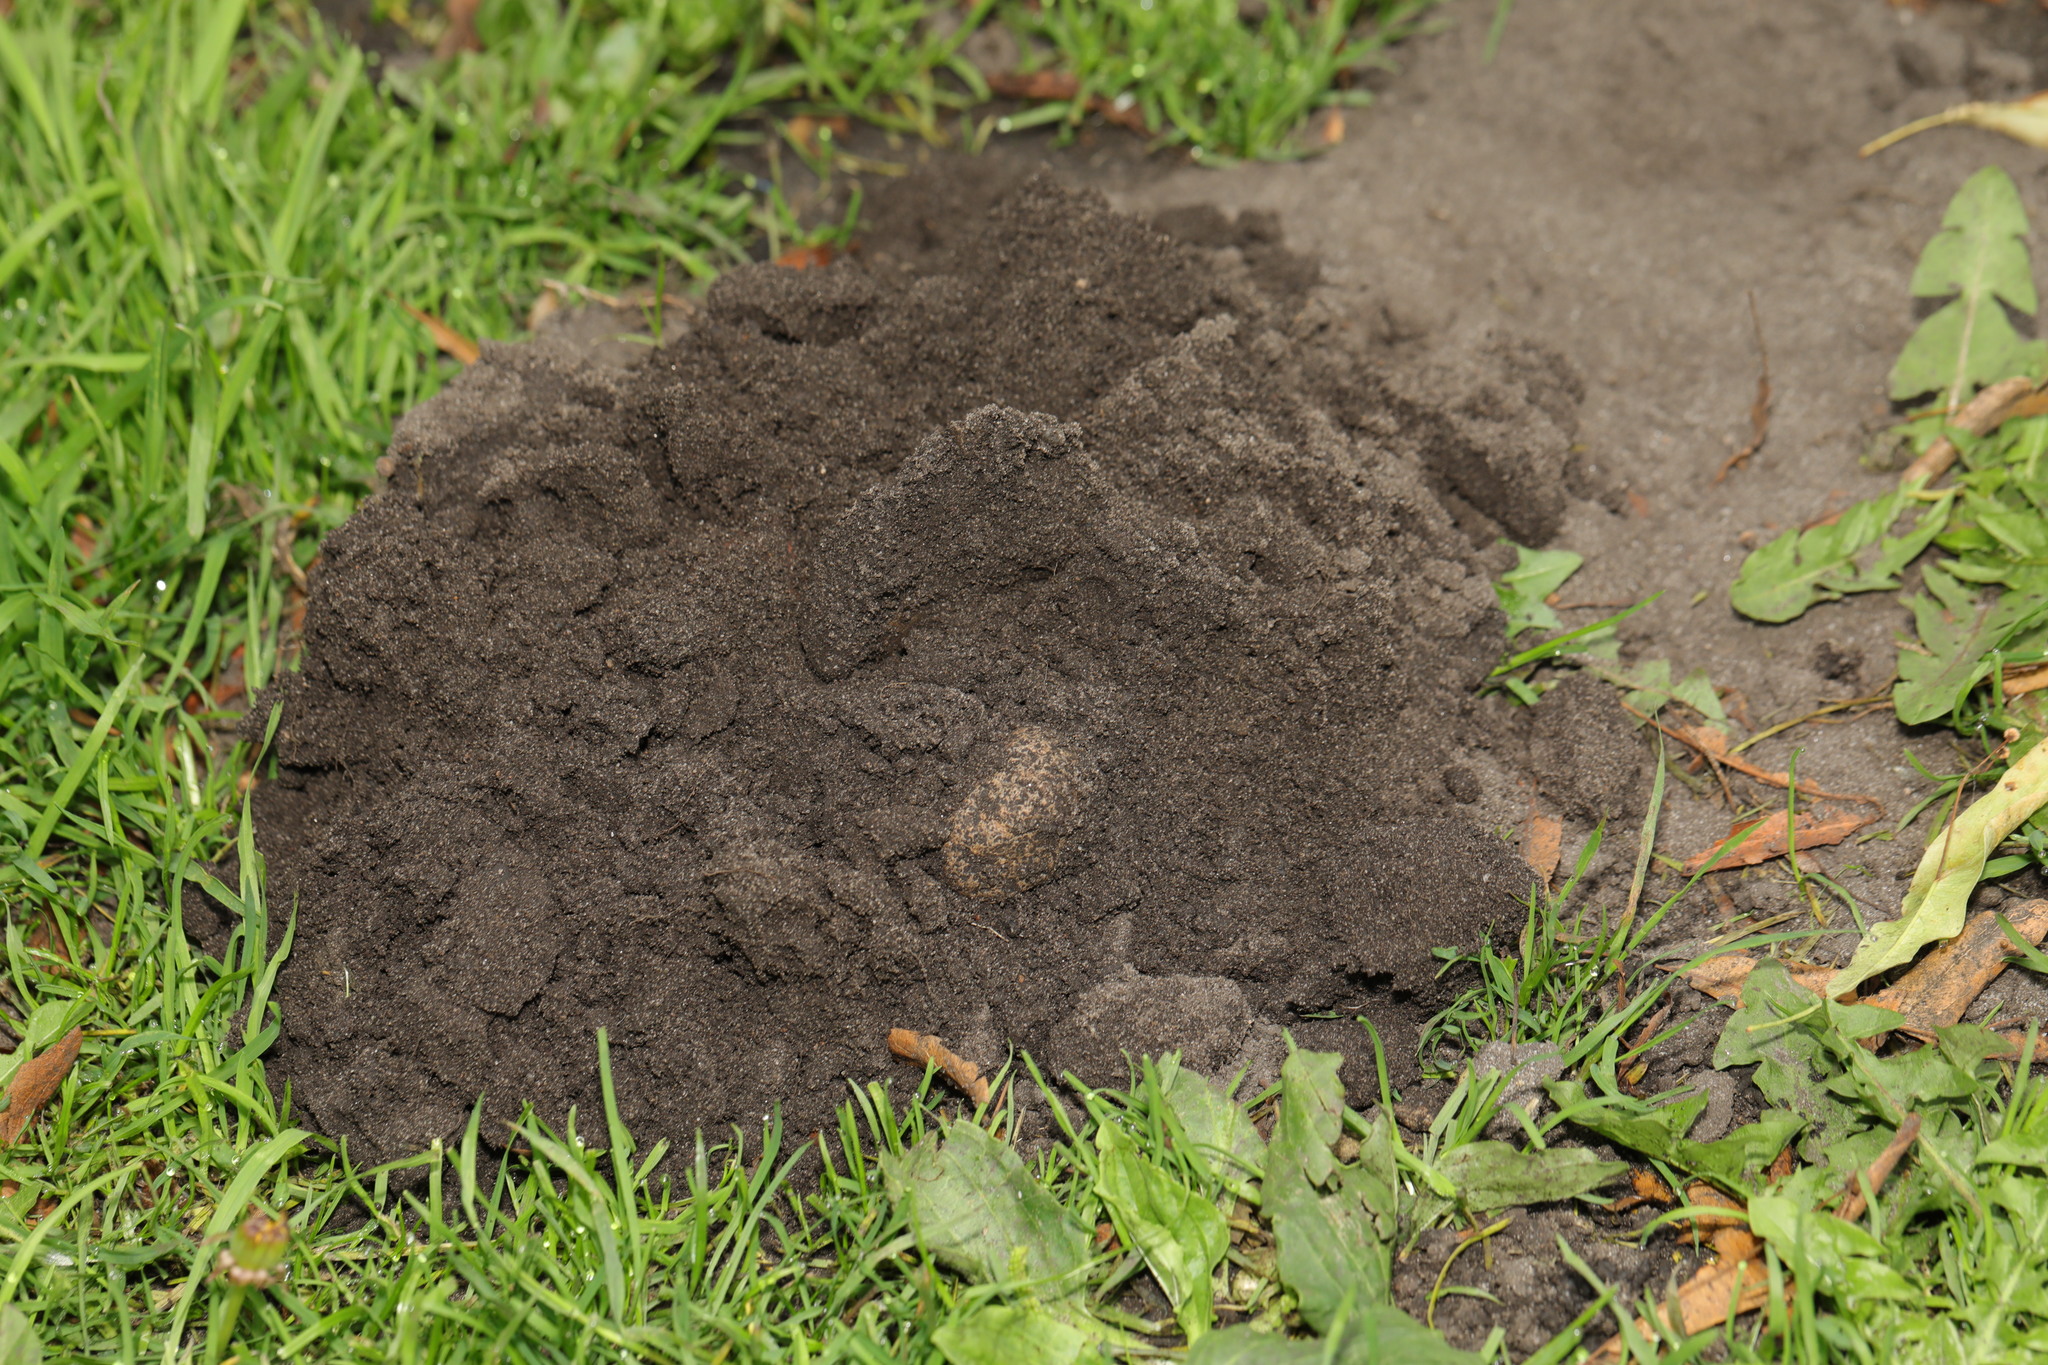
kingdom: Animalia
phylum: Chordata
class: Mammalia
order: Soricomorpha
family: Talpidae
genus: Talpa
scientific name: Talpa europaea
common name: European mole
